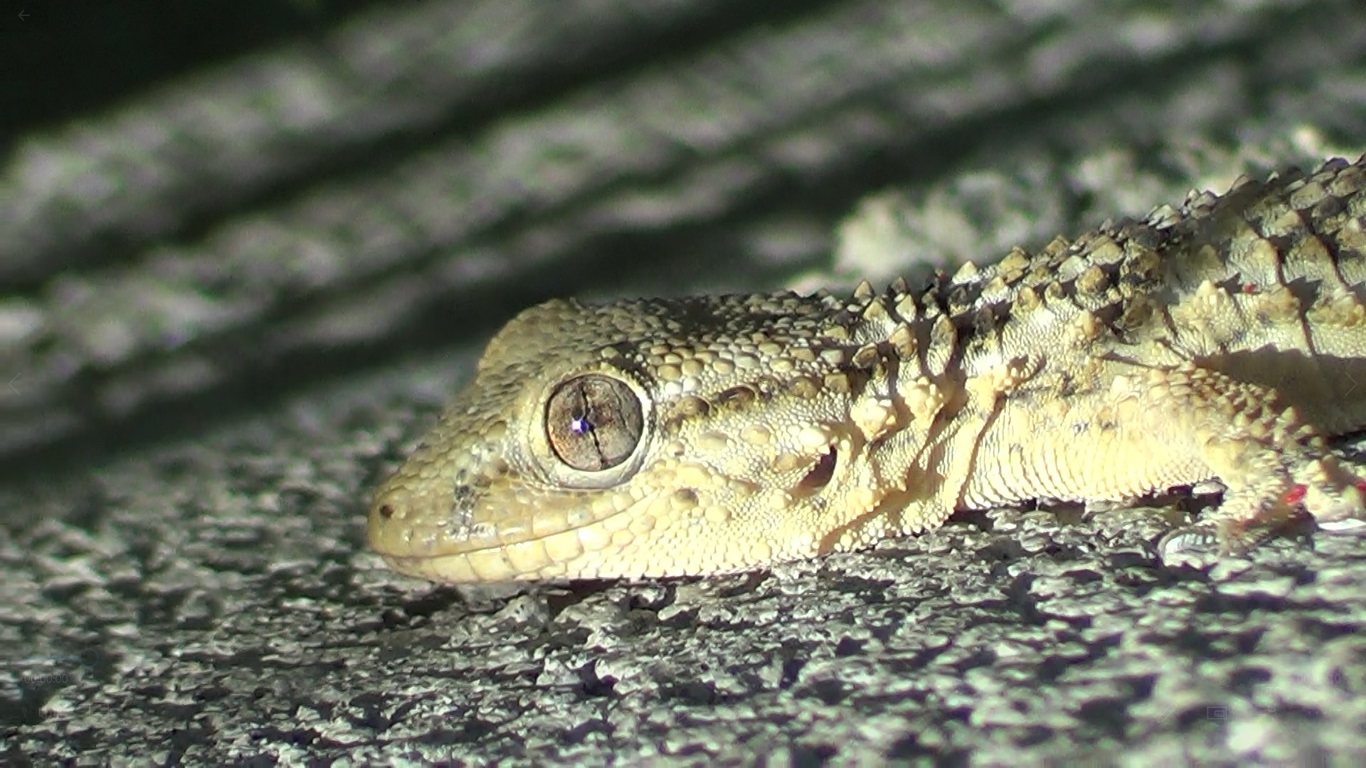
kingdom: Animalia
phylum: Chordata
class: Squamata
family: Phyllodactylidae
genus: Tarentola
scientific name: Tarentola mauritanica
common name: Moorish gecko
